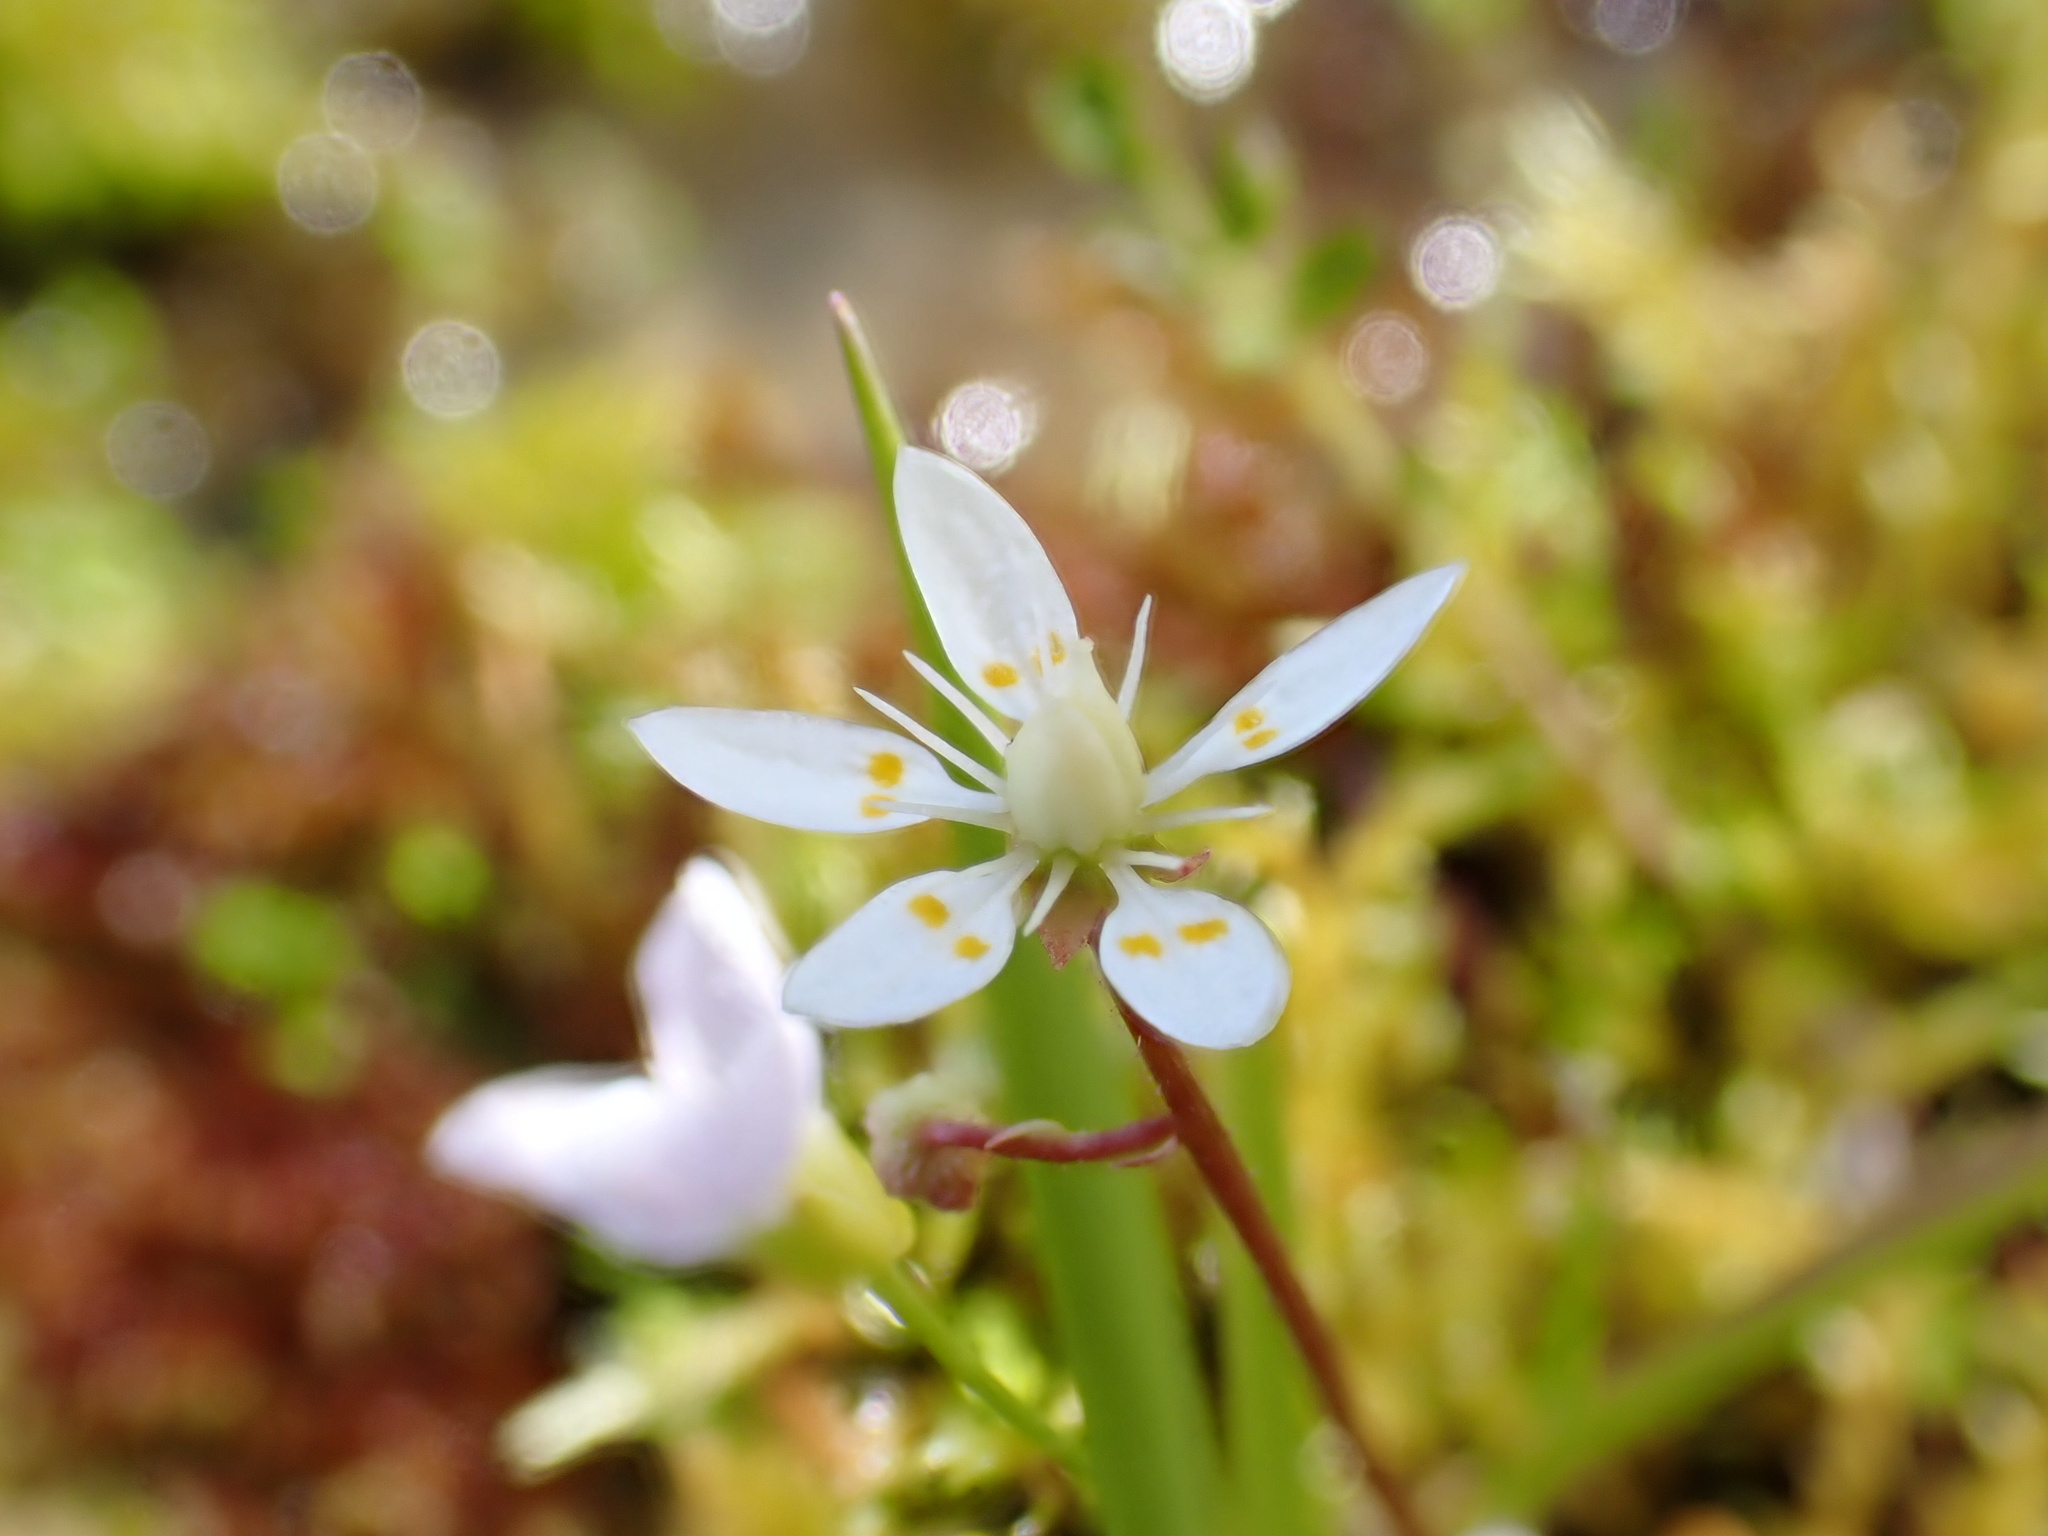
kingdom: Plantae
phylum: Tracheophyta
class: Magnoliopsida
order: Saxifragales
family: Saxifragaceae
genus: Micranthes
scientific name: Micranthes stellaris
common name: Starry saxifrage
